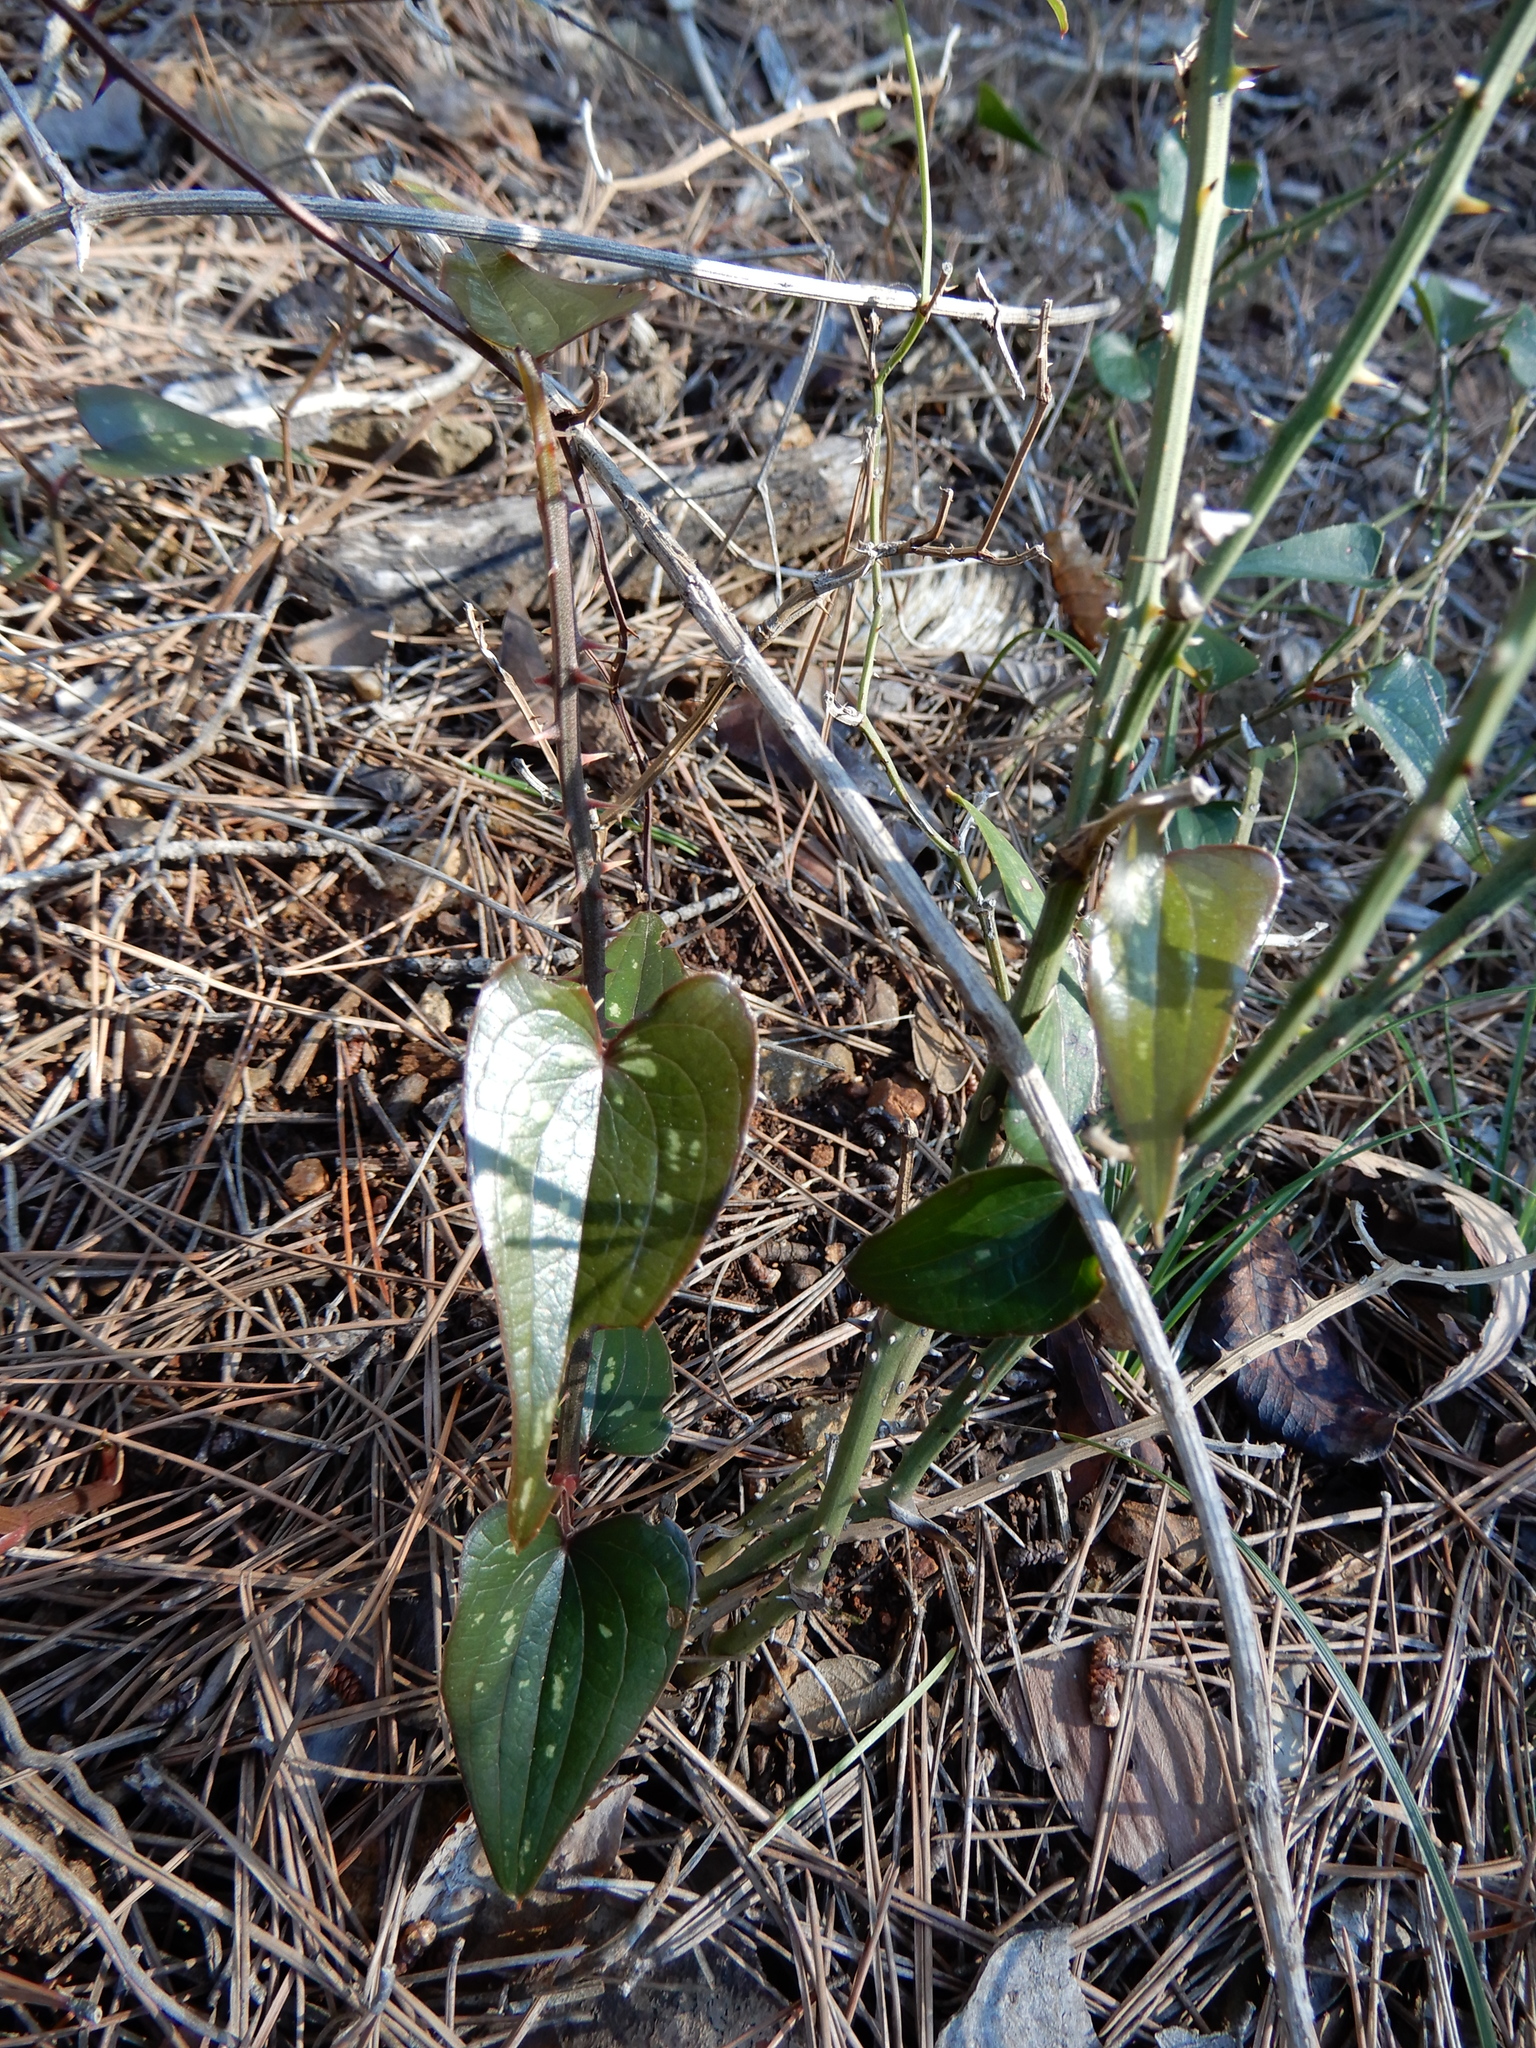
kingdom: Plantae
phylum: Tracheophyta
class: Liliopsida
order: Liliales
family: Smilacaceae
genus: Smilax
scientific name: Smilax aspera
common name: Common smilax
